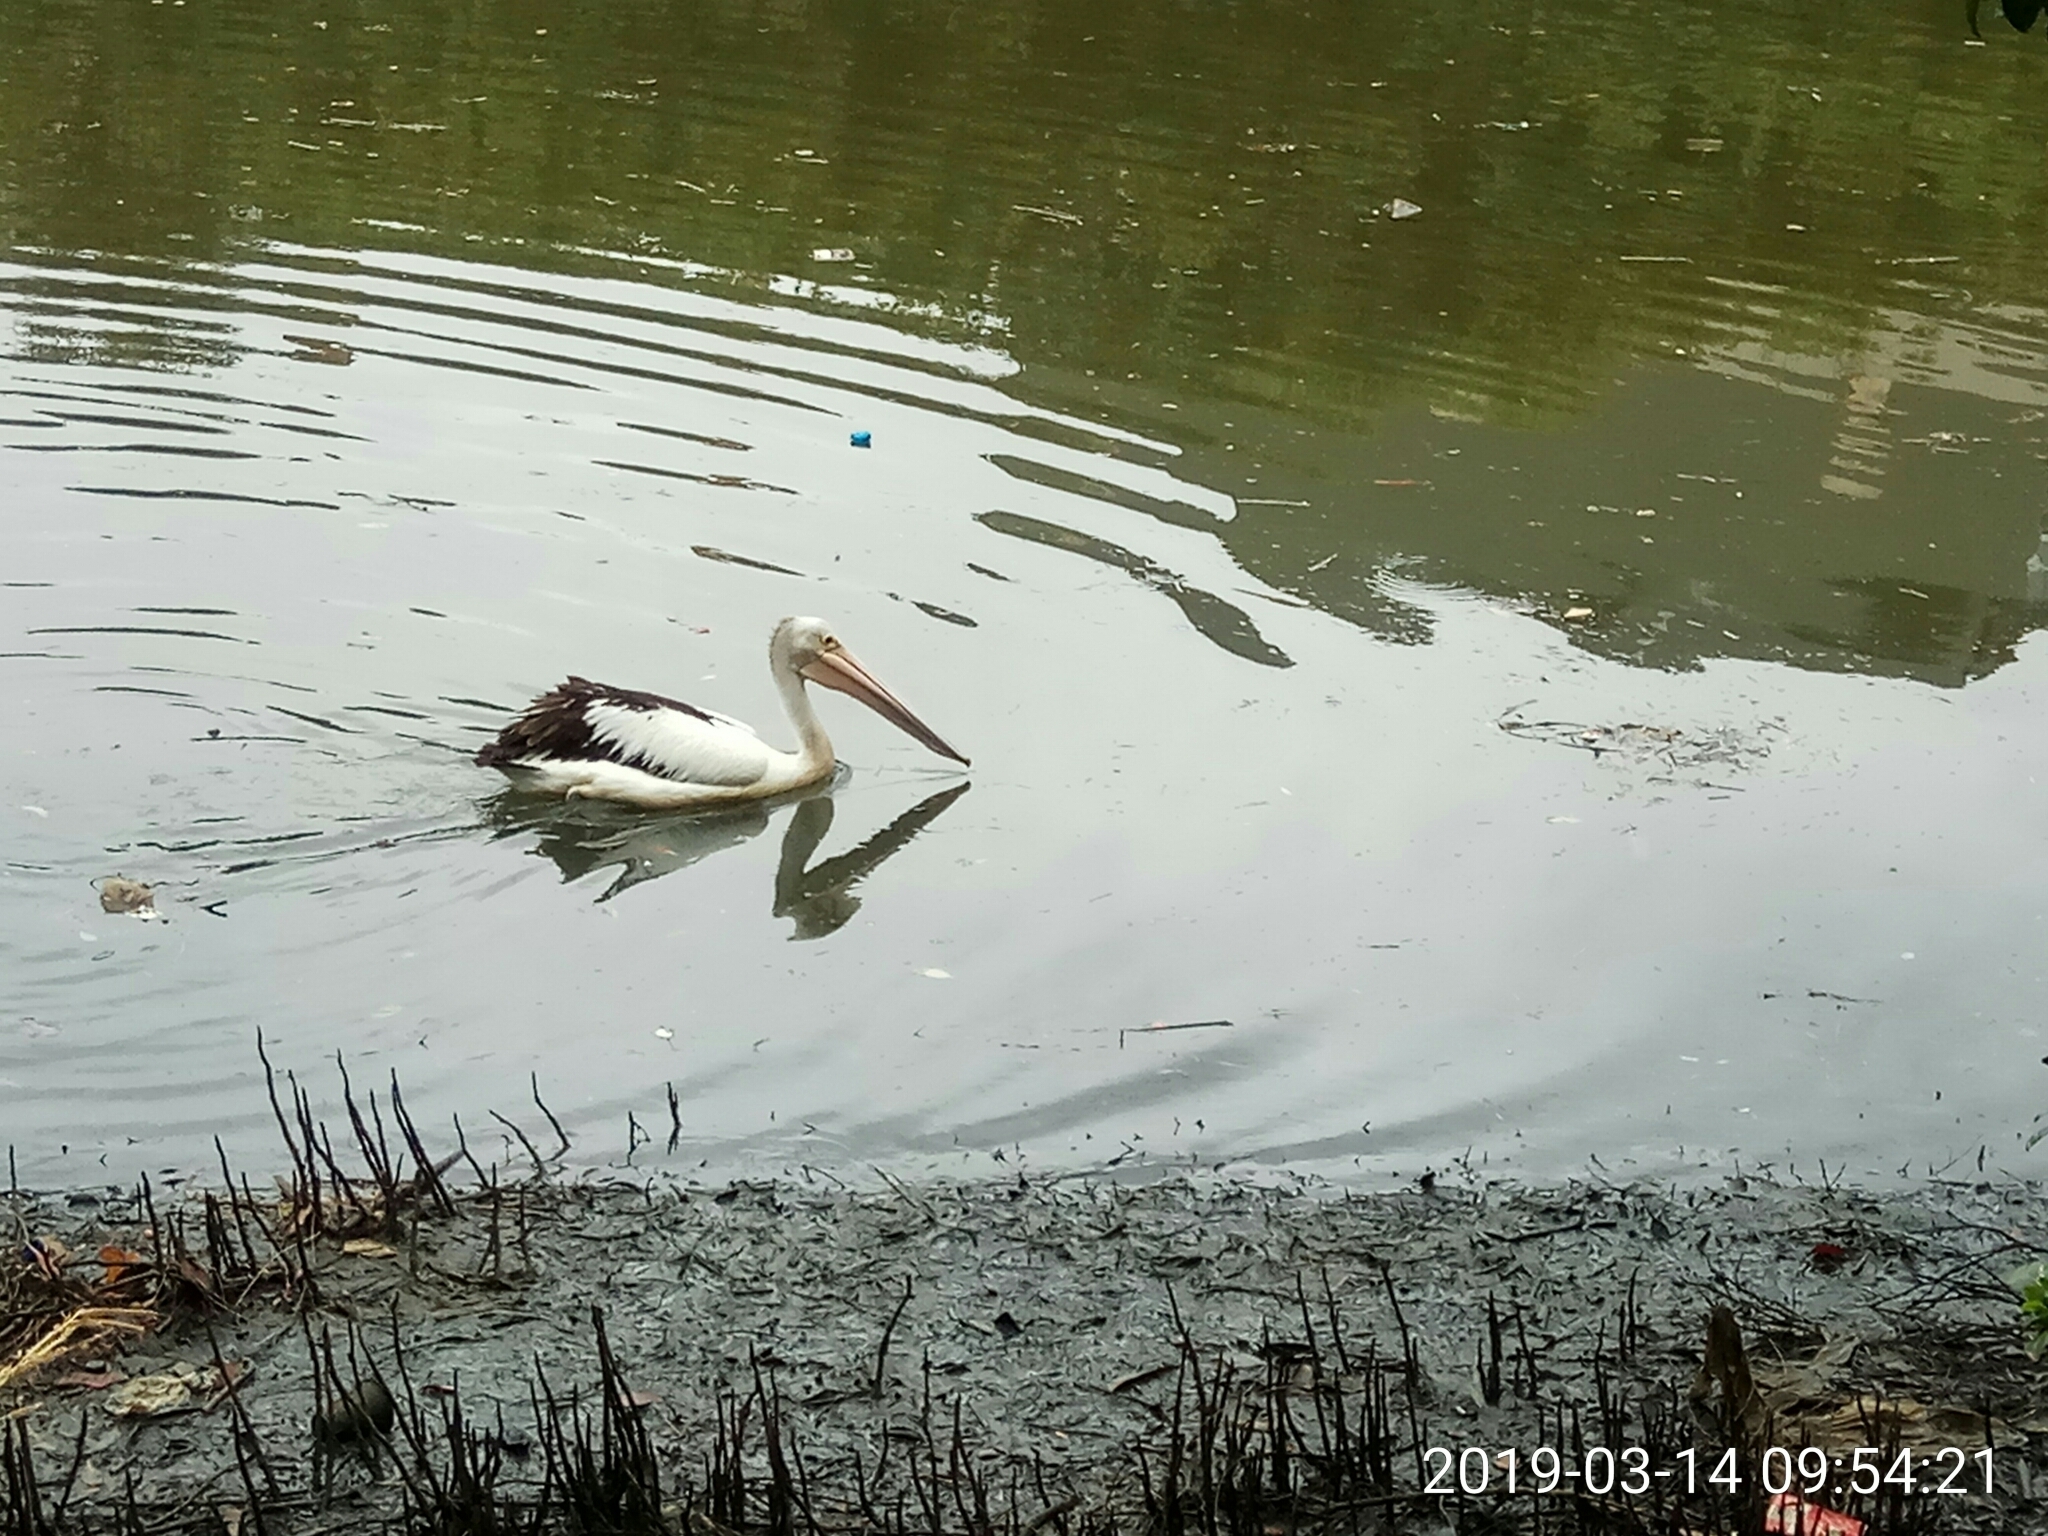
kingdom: Animalia
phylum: Chordata
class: Aves
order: Pelecaniformes
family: Pelecanidae
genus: Pelecanus
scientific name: Pelecanus conspicillatus
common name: Australian pelican
